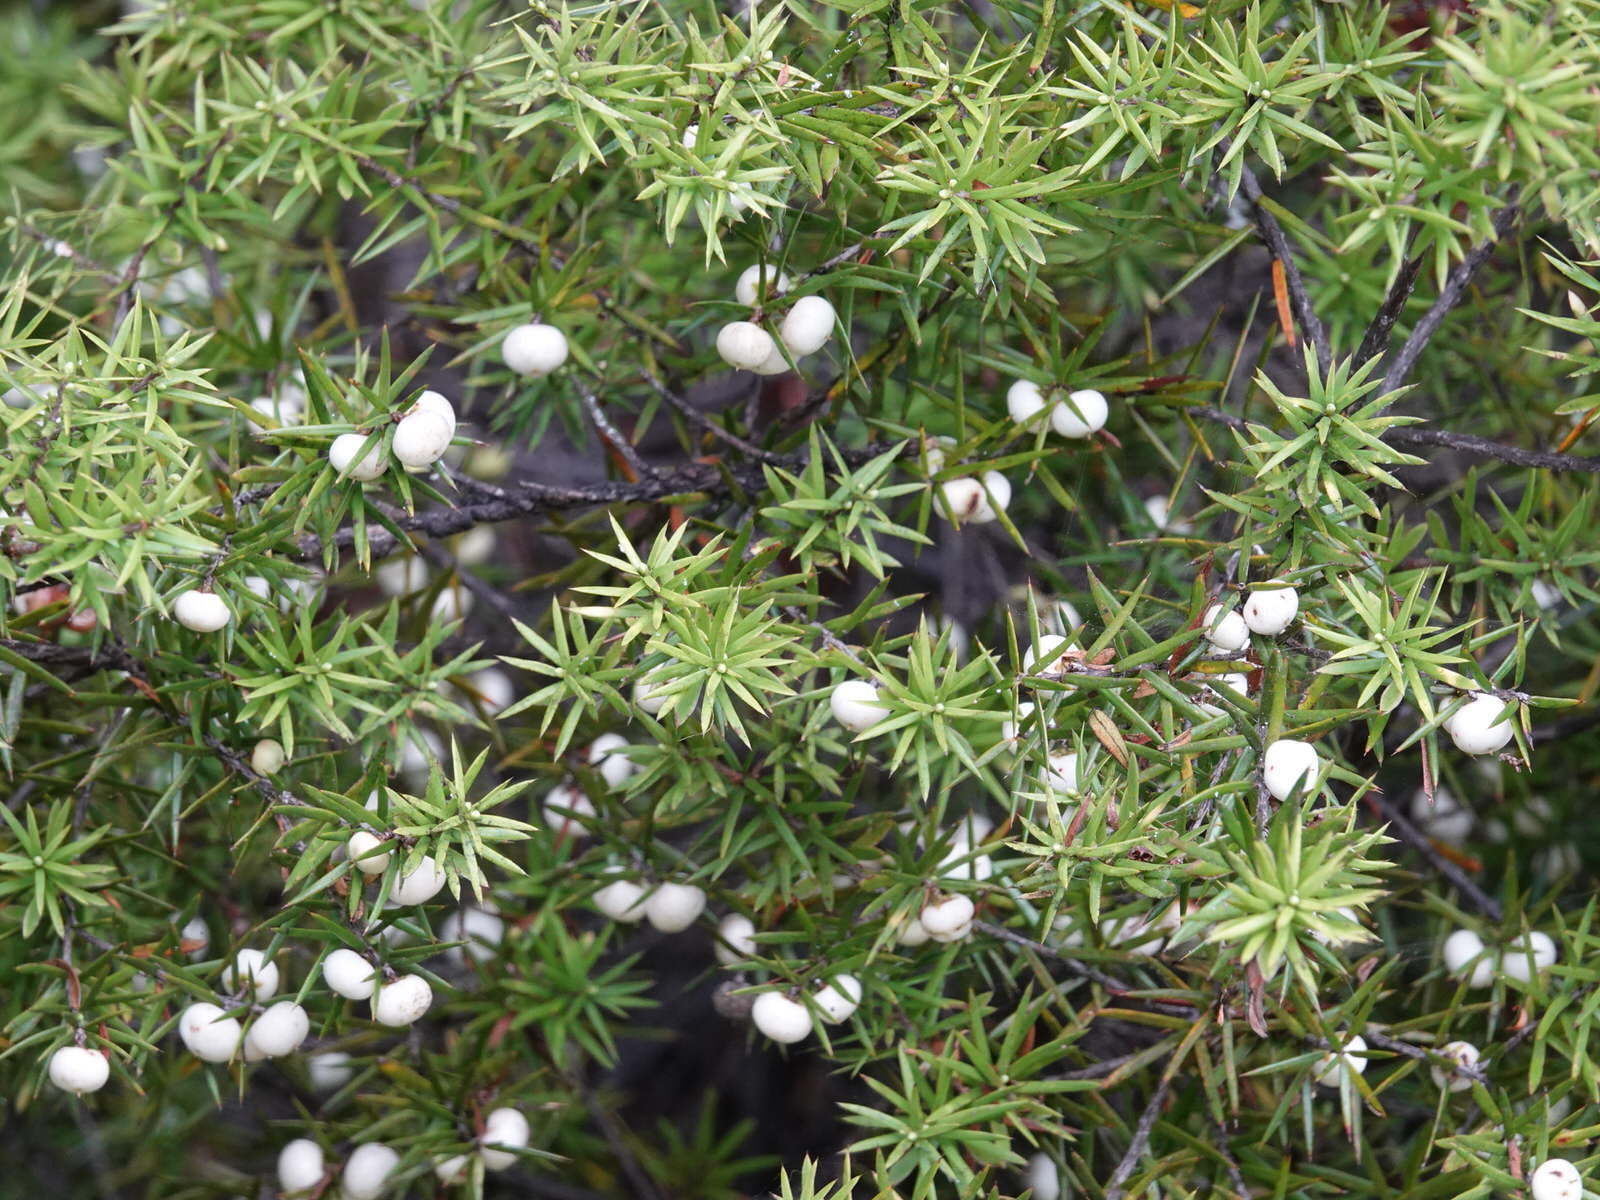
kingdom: Plantae
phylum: Tracheophyta
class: Magnoliopsida
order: Ericales
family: Ericaceae
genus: Leptecophylla
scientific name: Leptecophylla juniperina
